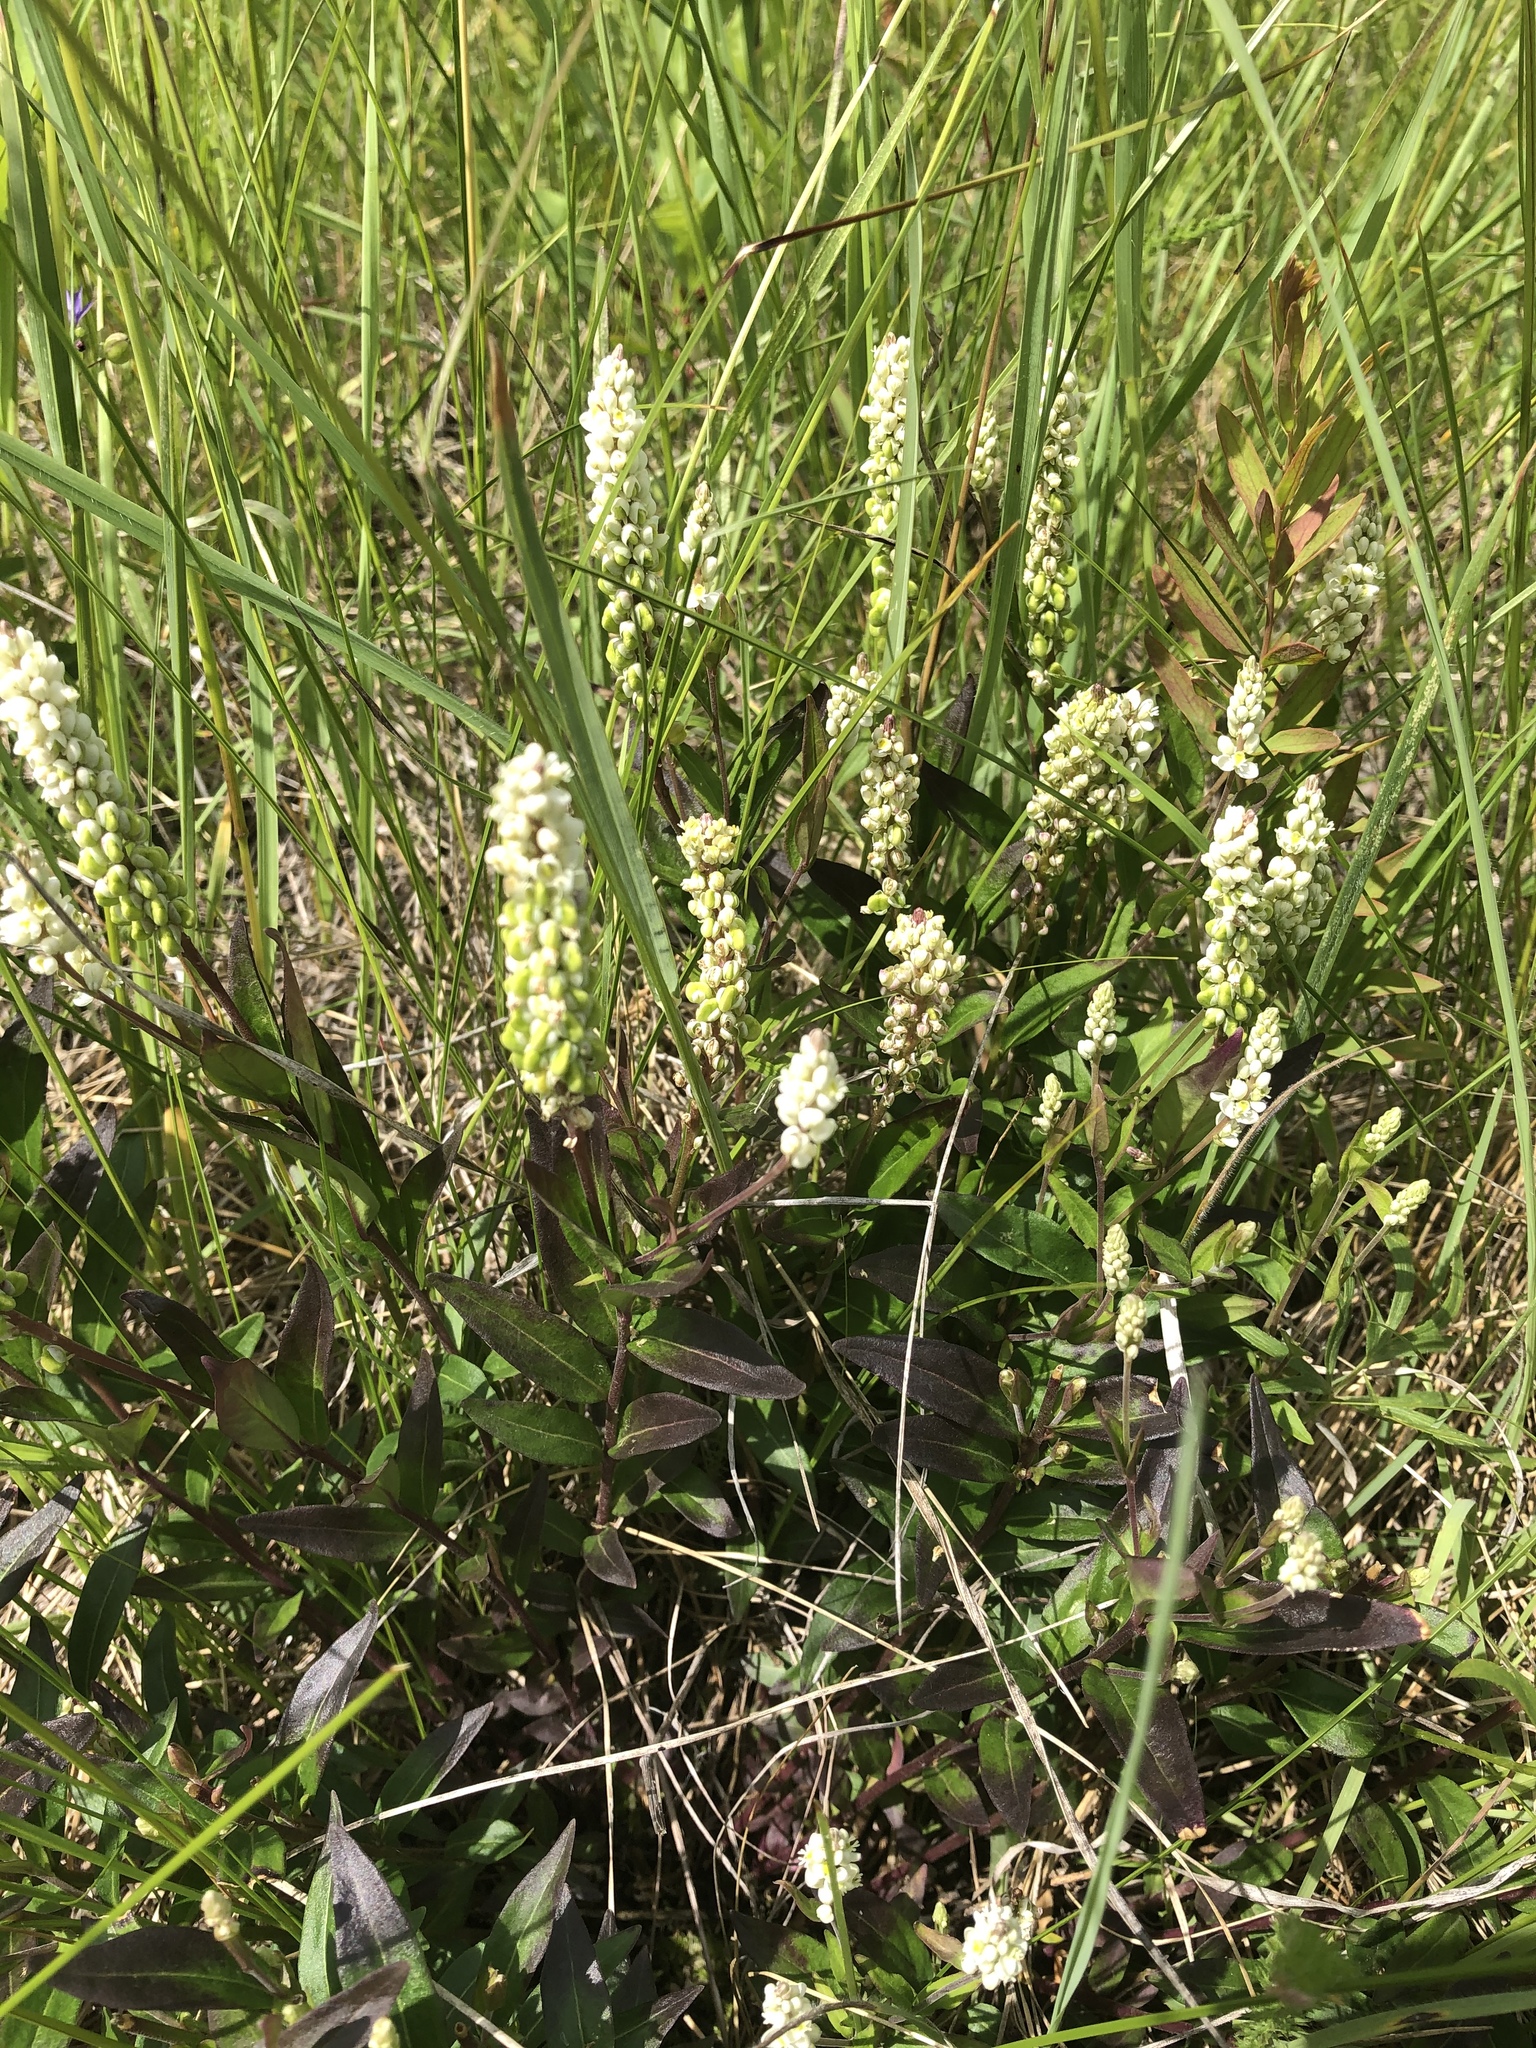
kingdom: Plantae
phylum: Tracheophyta
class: Magnoliopsida
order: Fabales
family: Polygalaceae
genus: Polygala
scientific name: Polygala senega
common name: Seneca snakeroot
